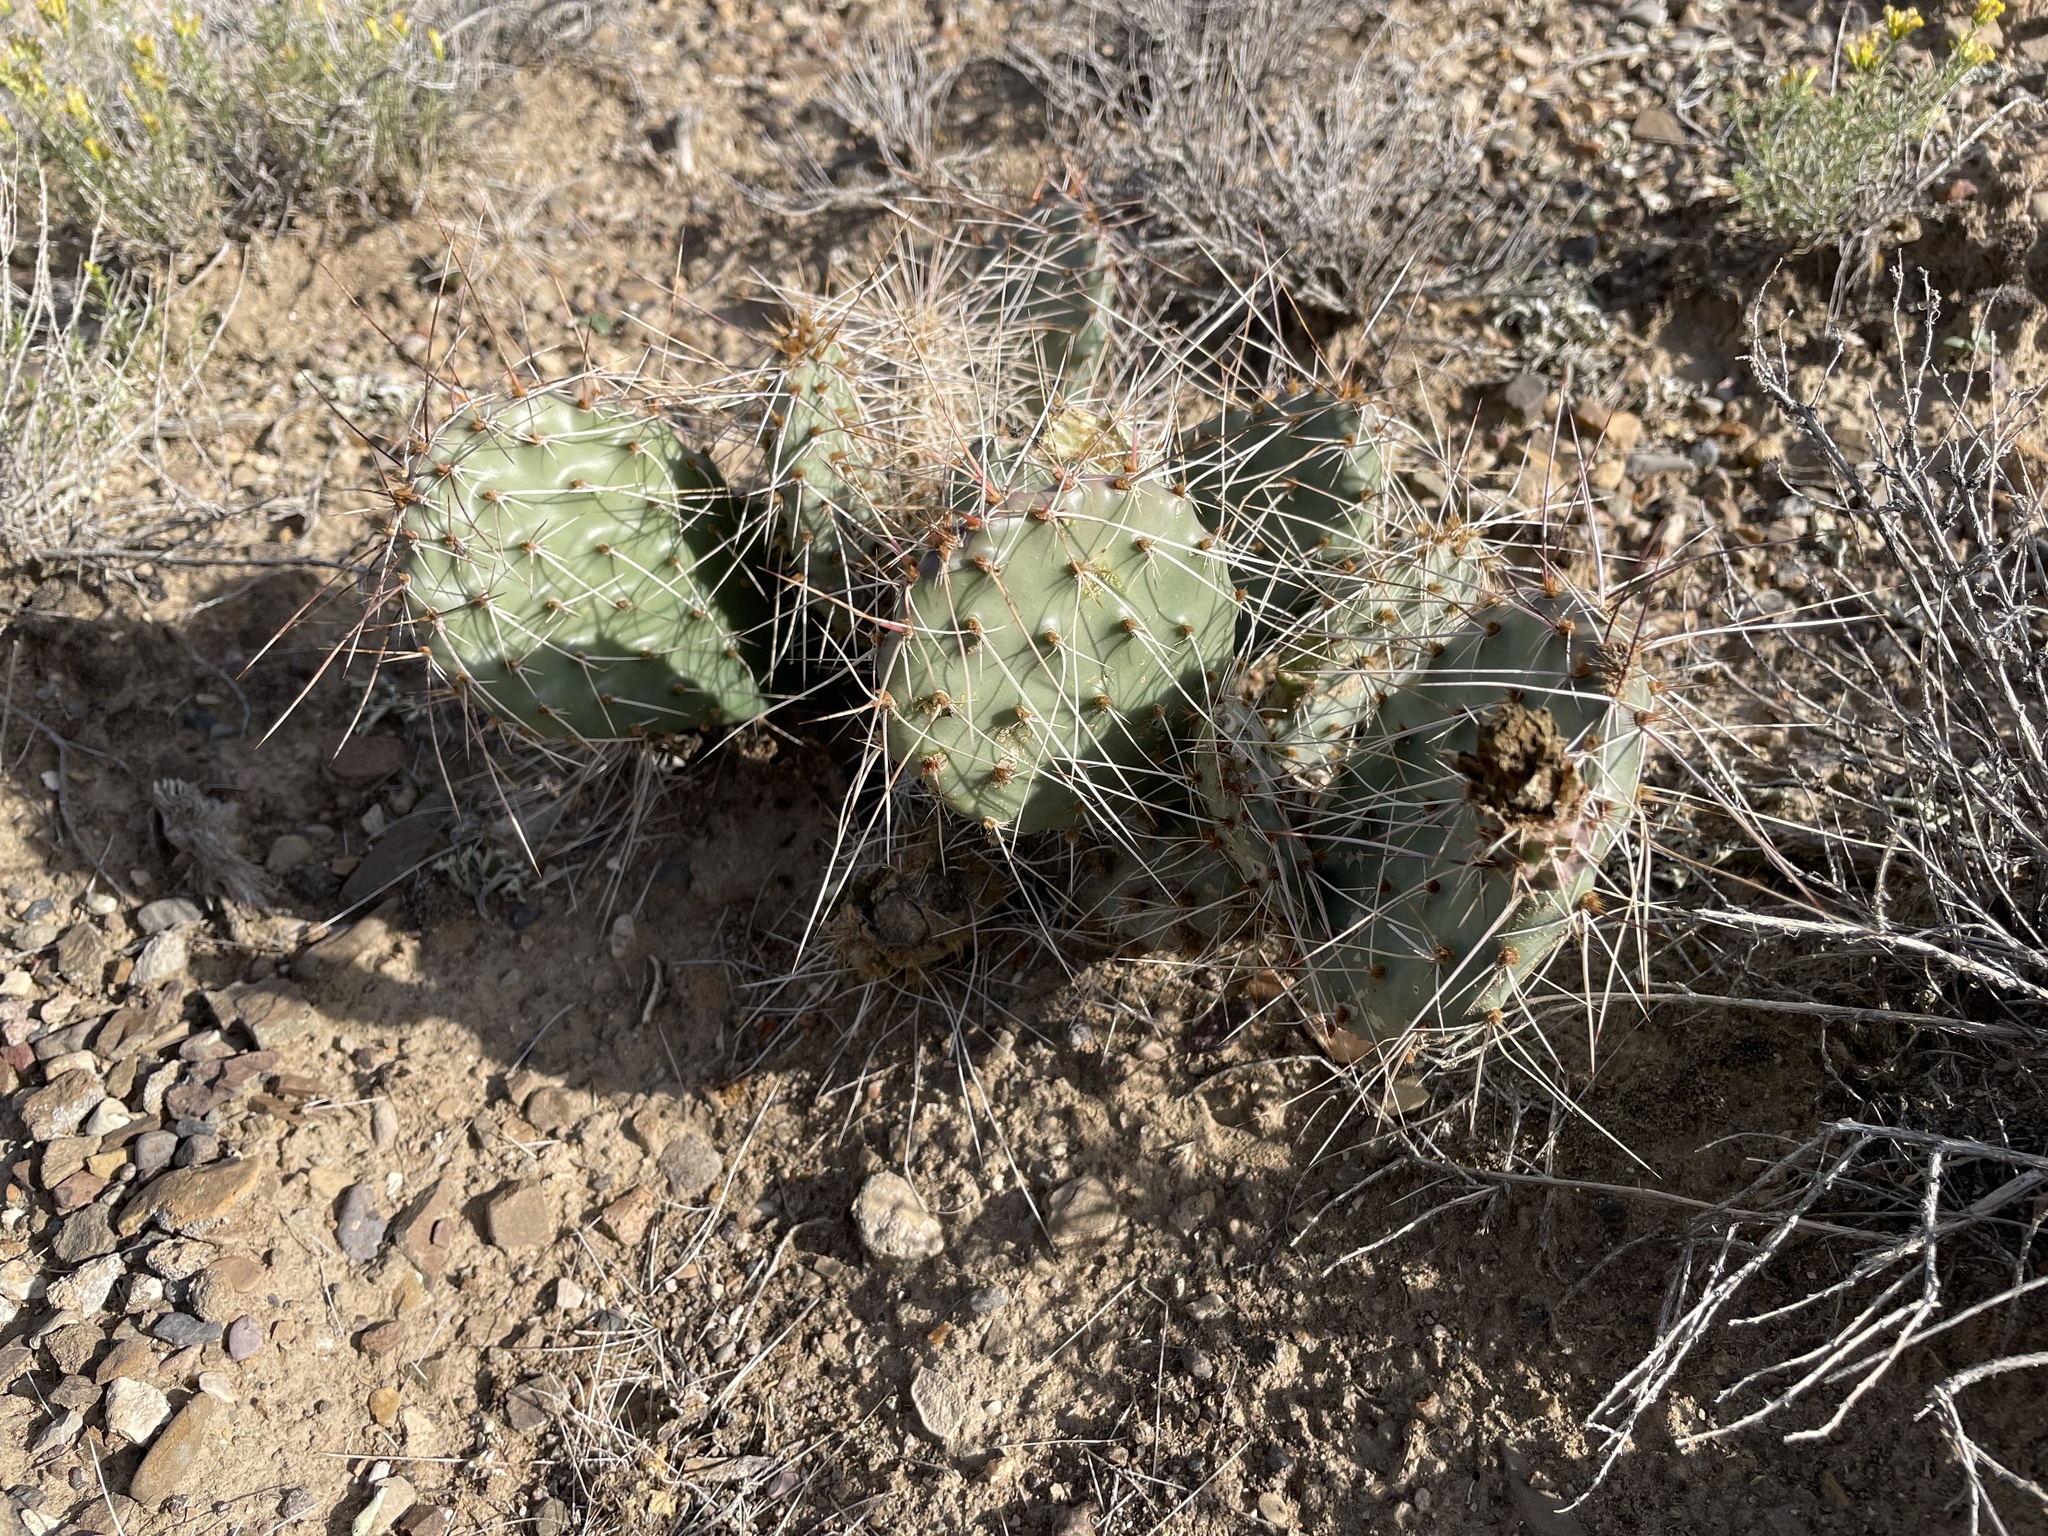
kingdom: Plantae
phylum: Tracheophyta
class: Magnoliopsida
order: Caryophyllales
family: Cactaceae
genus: Opuntia
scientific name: Opuntia polyacantha
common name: Plains prickly-pear
